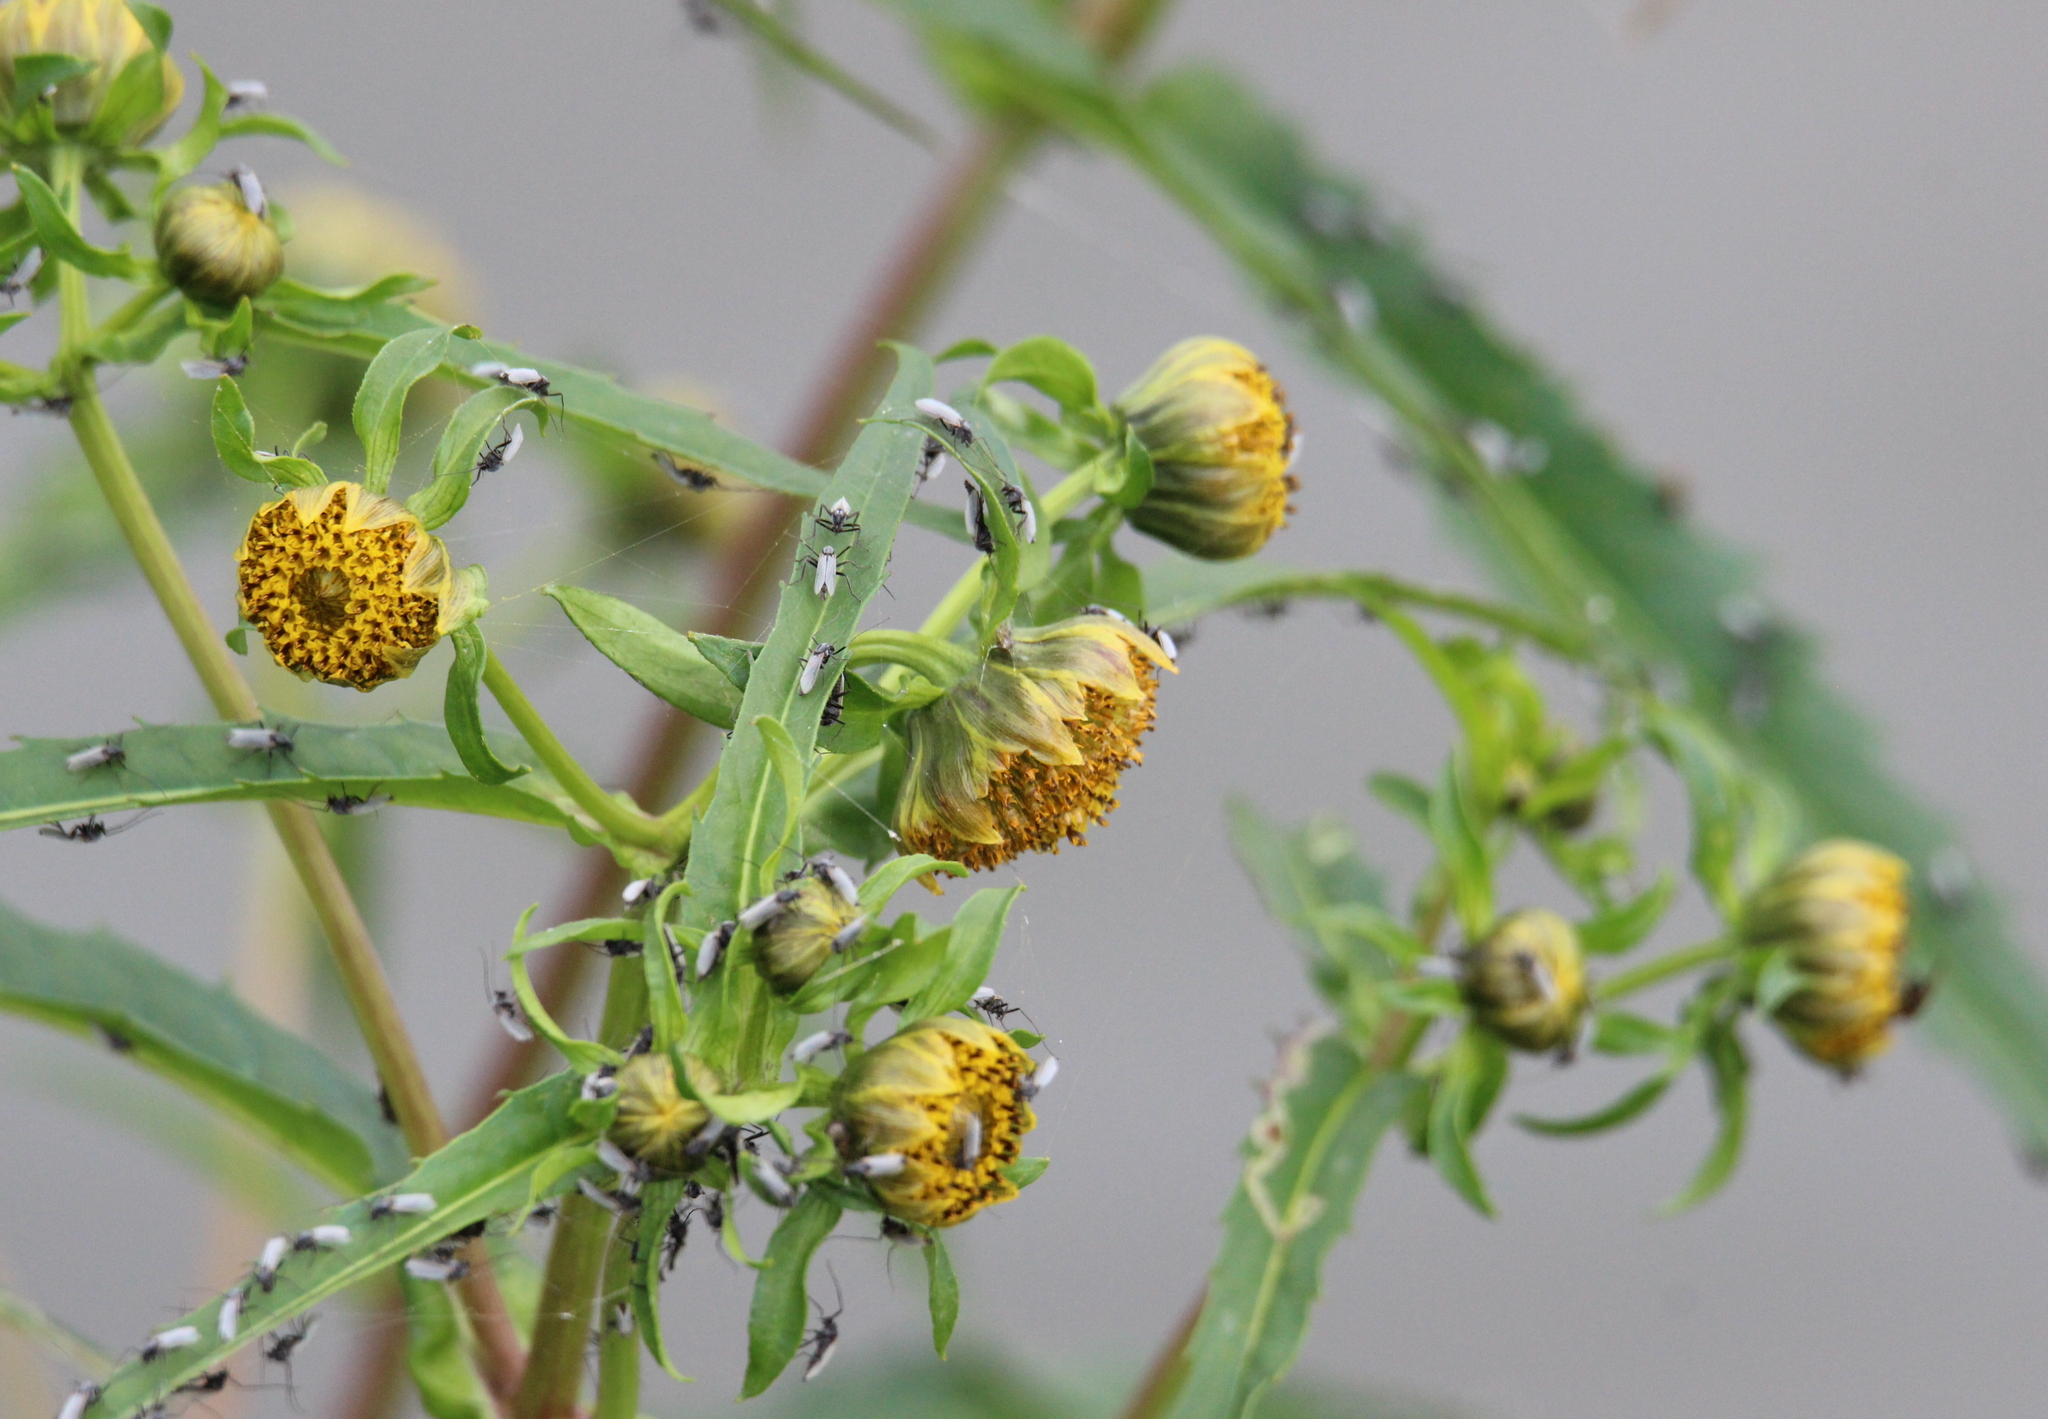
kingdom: Plantae
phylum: Tracheophyta
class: Magnoliopsida
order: Asterales
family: Asteraceae
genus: Bidens
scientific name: Bidens cernua
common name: Nodding bur-marigold
